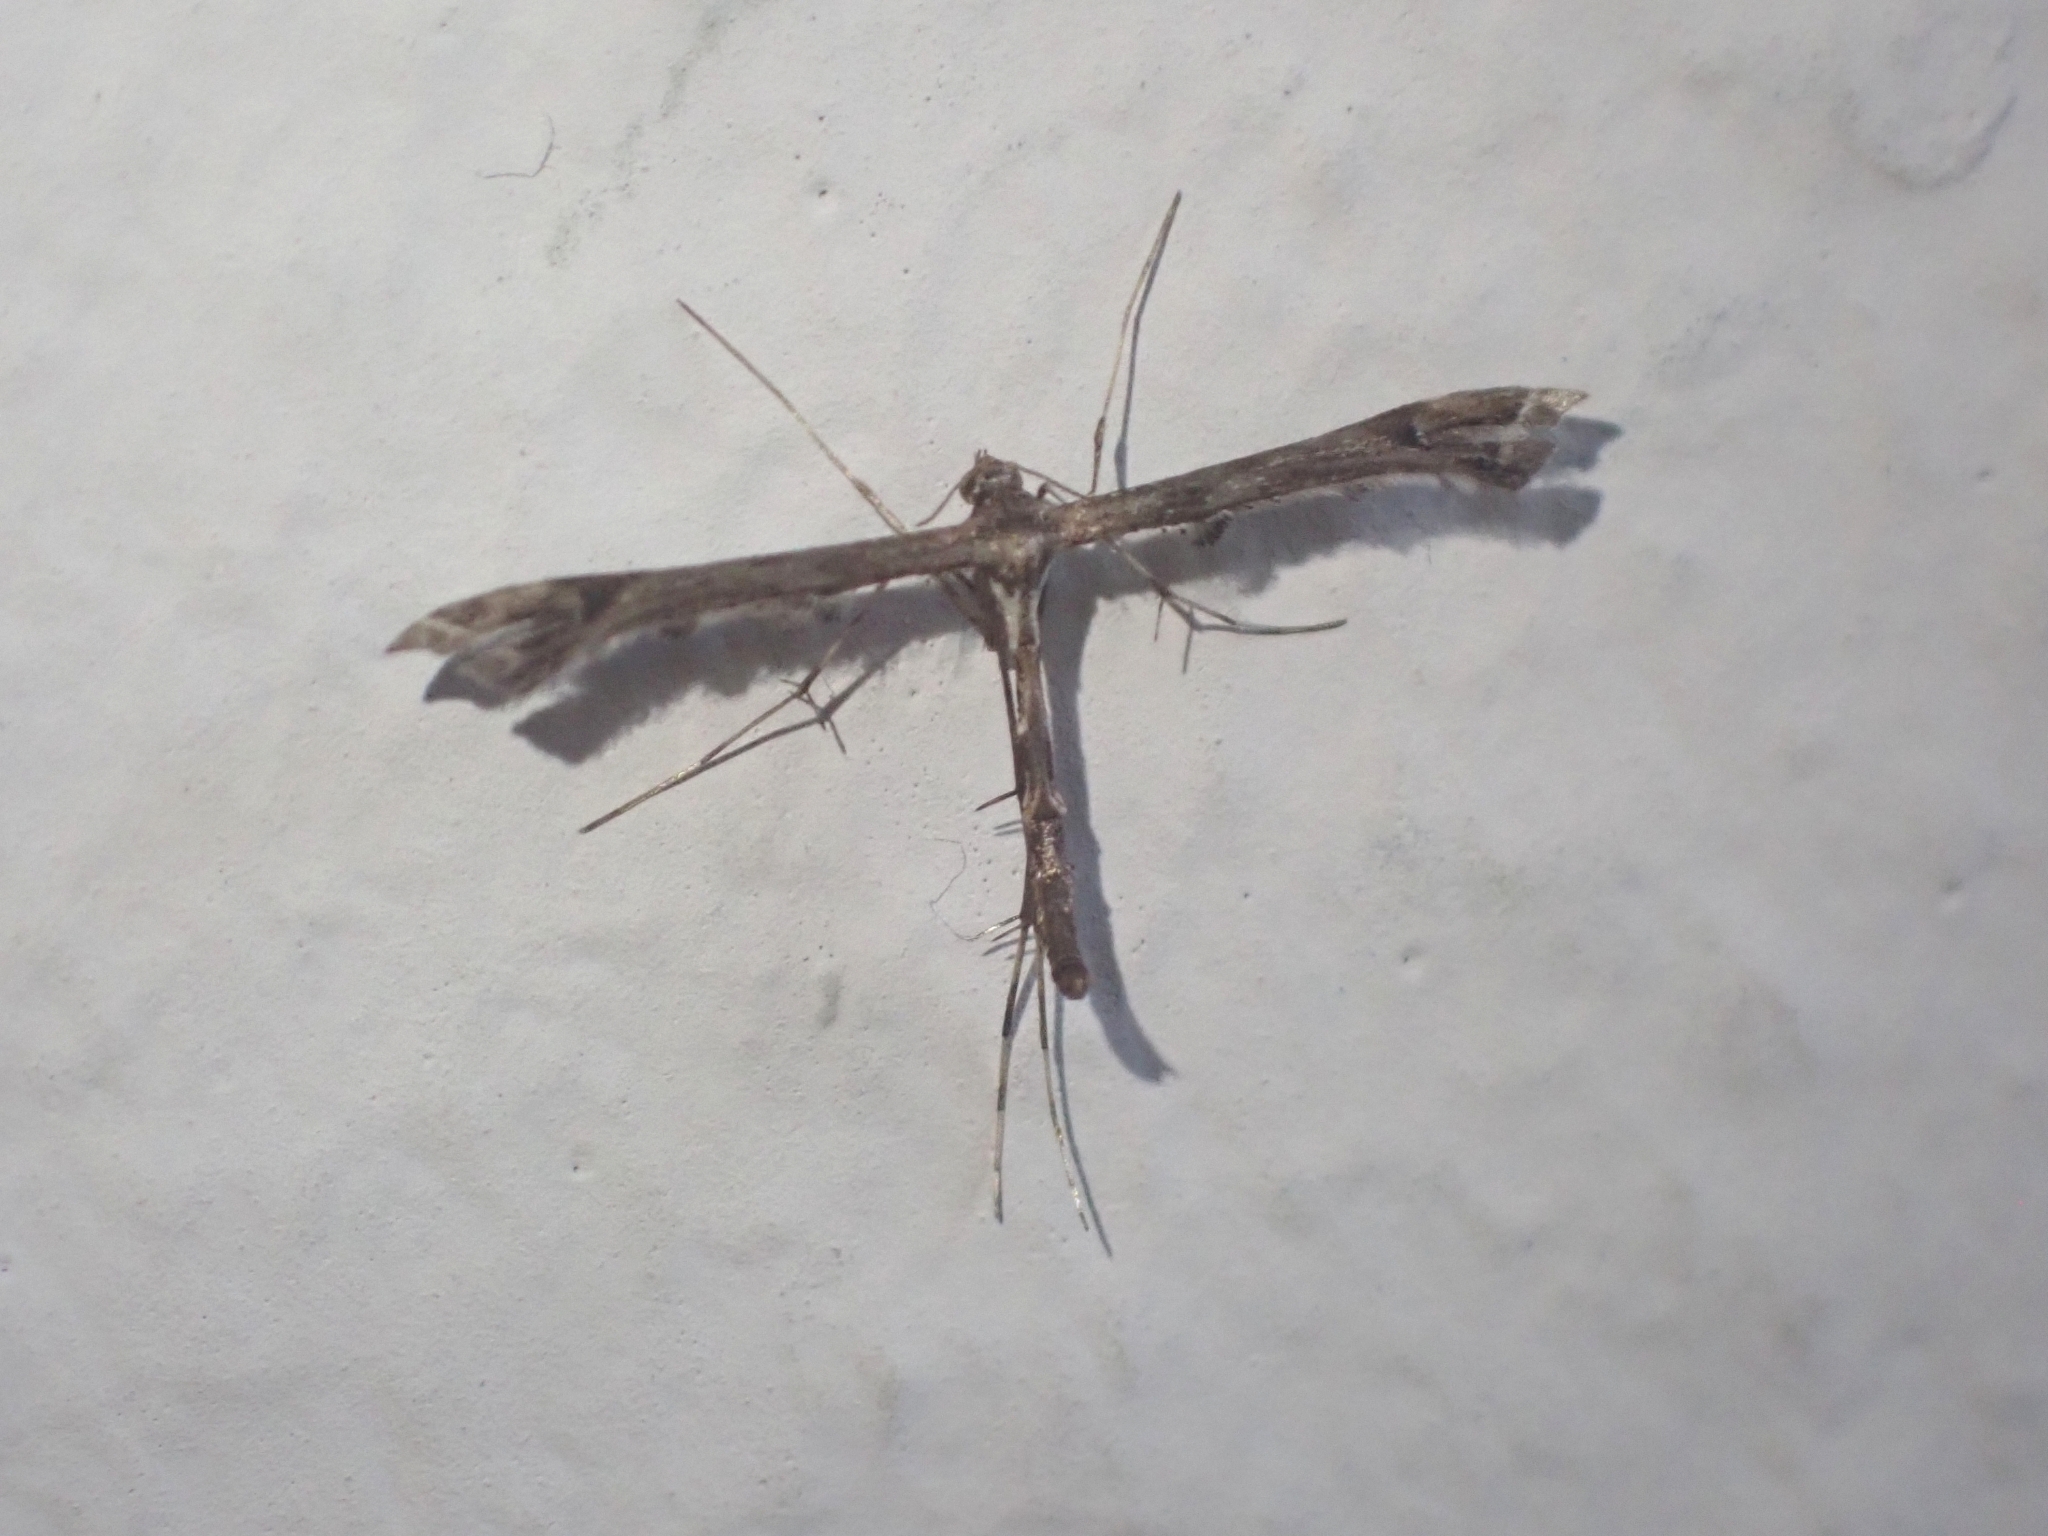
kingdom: Animalia
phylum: Arthropoda
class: Insecta
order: Lepidoptera
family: Pterophoridae
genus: Amblyptilia
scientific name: Amblyptilia acanthadactyla
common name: Beautiful plume
